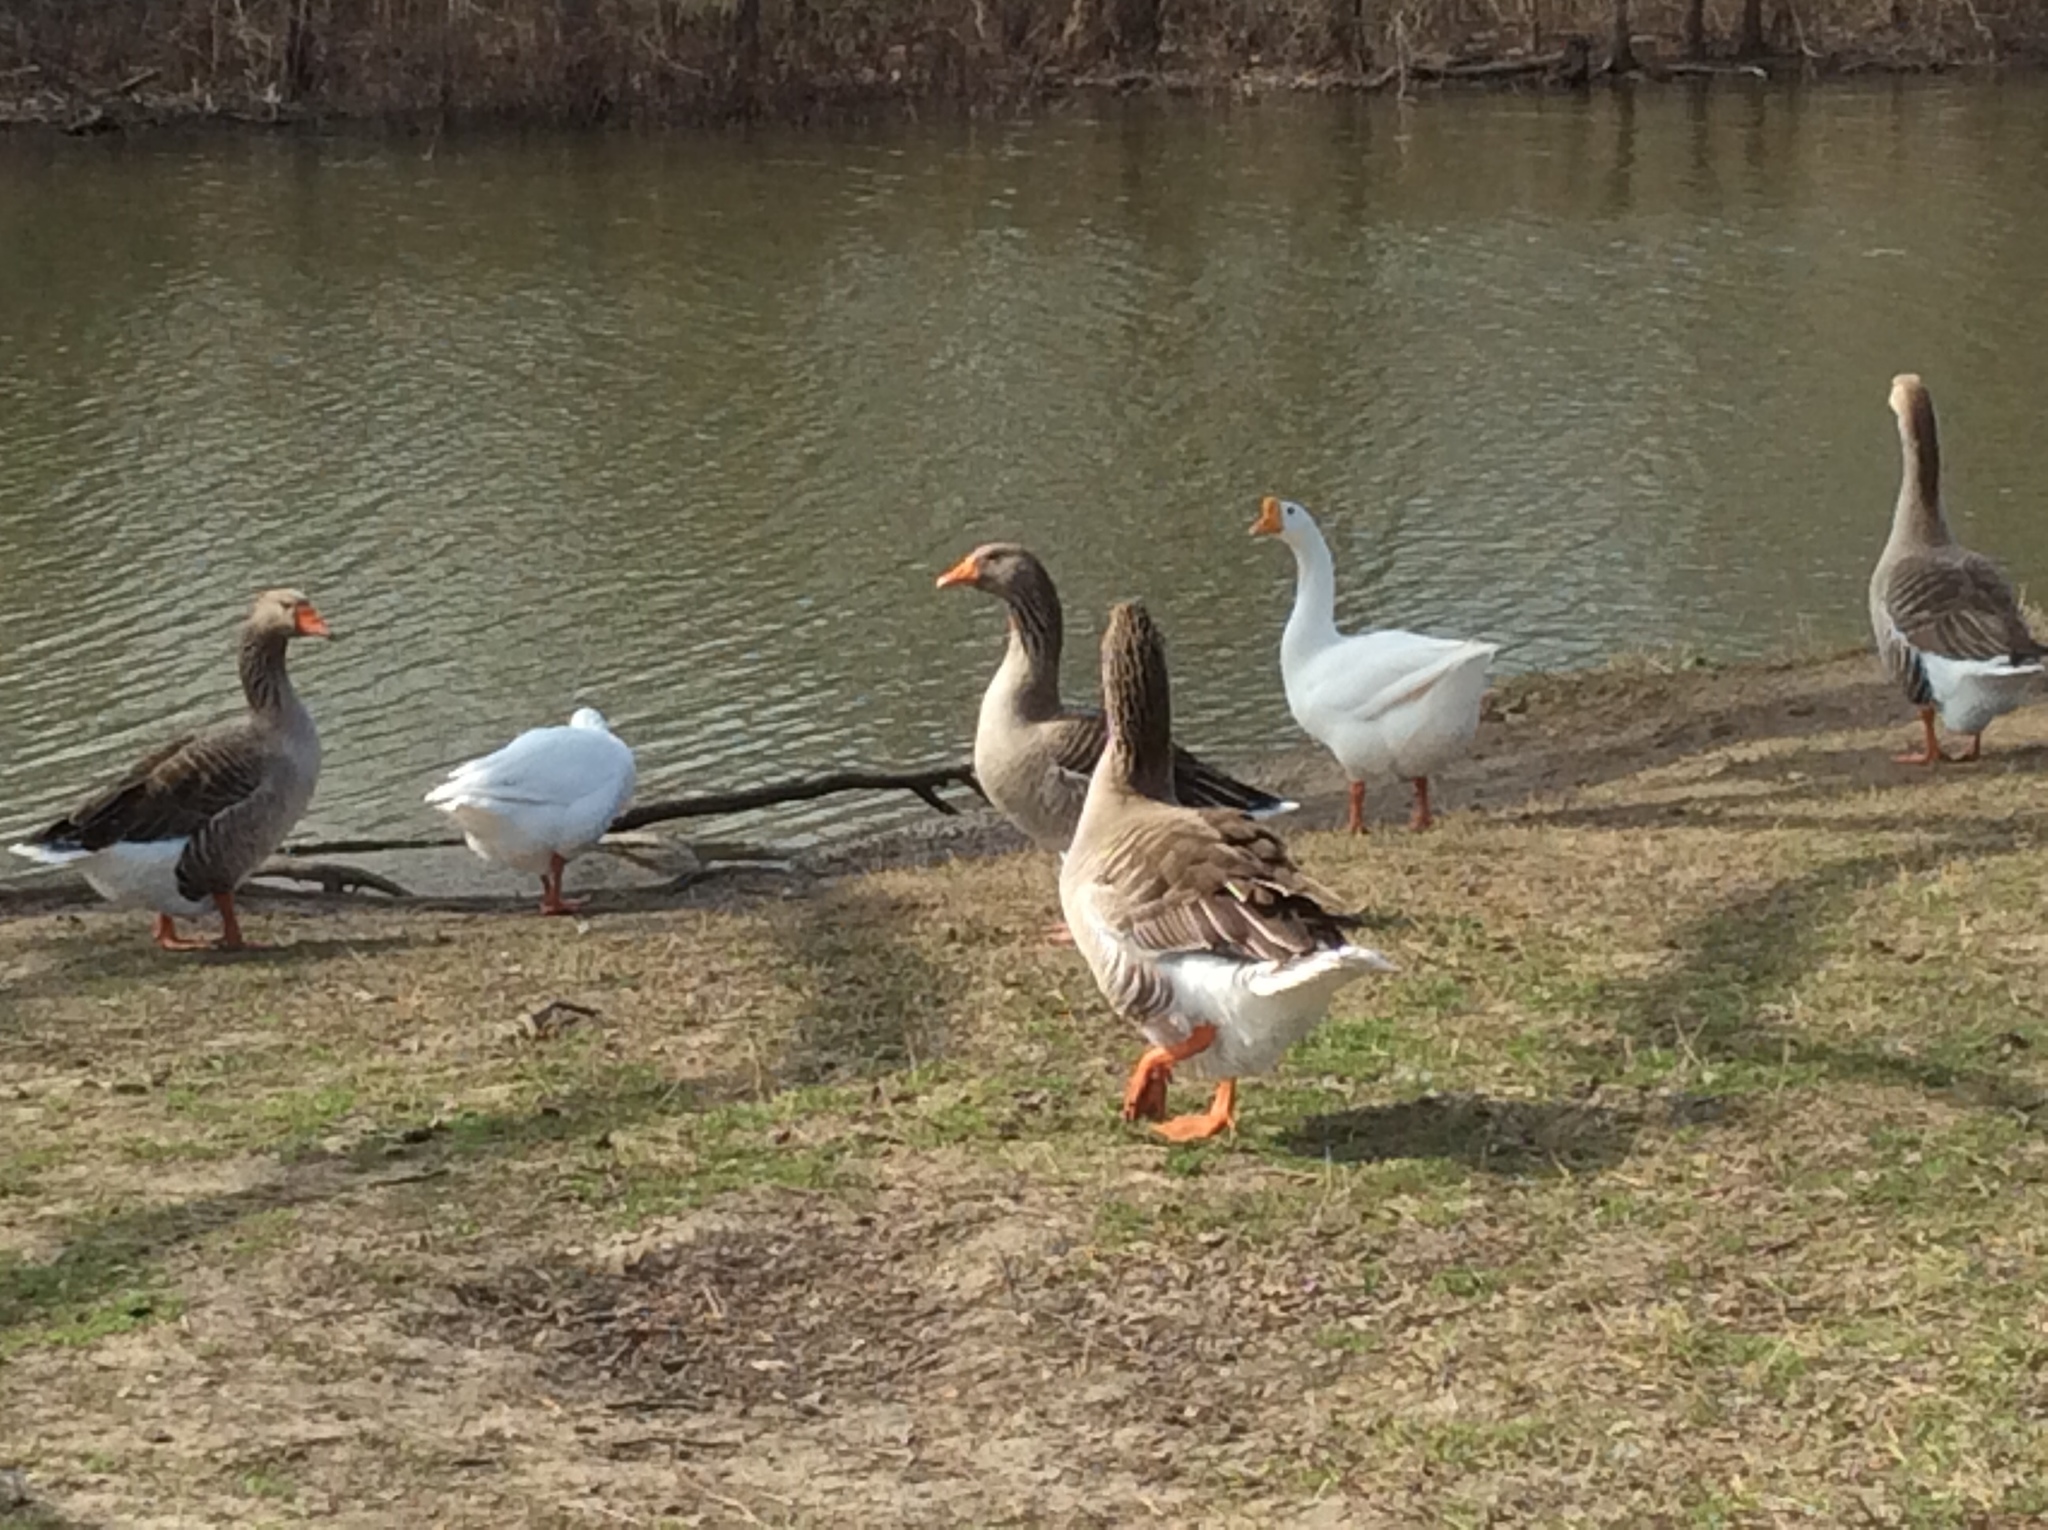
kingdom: Animalia
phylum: Chordata
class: Aves
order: Anseriformes
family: Anatidae
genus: Anser
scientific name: Anser anser
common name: Greylag goose
